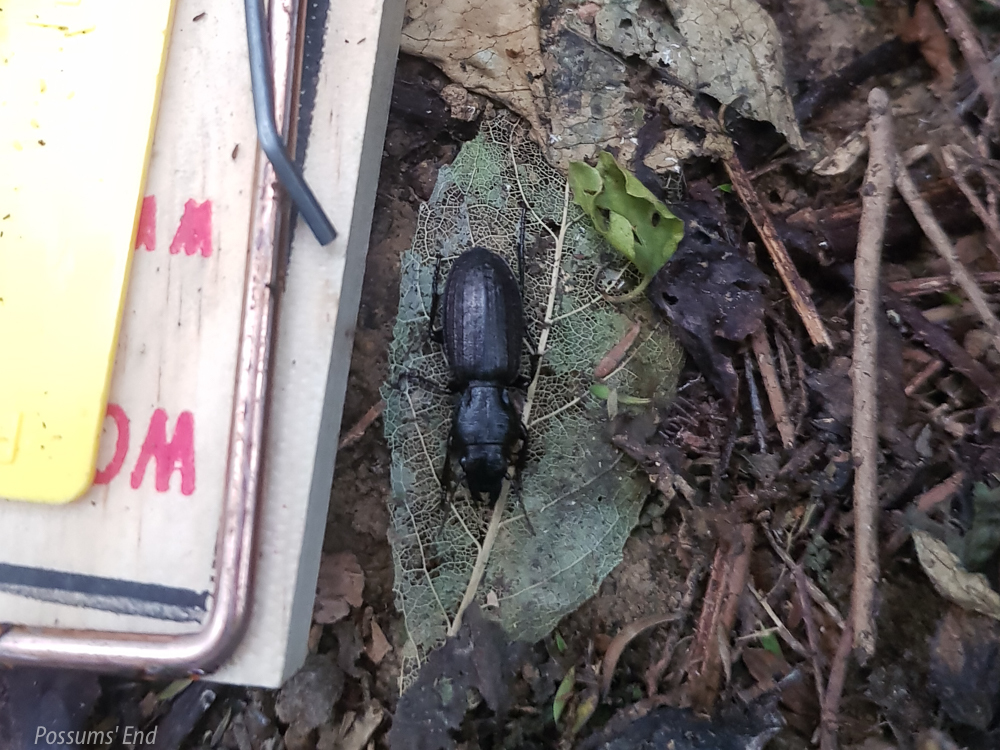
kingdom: Animalia
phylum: Arthropoda
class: Insecta
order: Coleoptera
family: Carabidae
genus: Mecodema
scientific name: Mecodema sculpturatum
